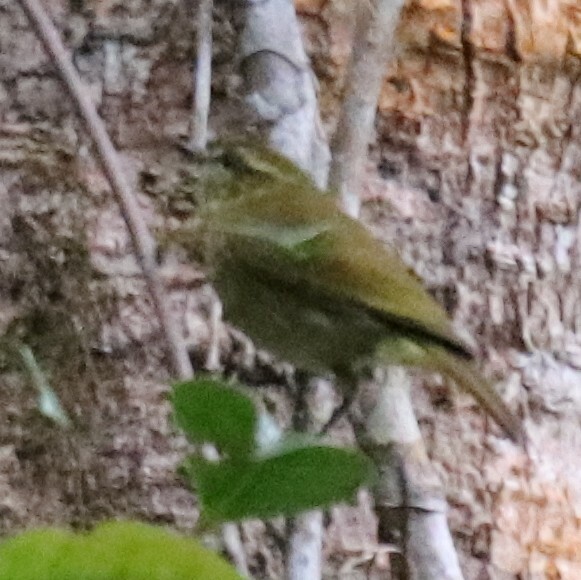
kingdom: Animalia
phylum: Chordata
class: Aves
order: Passeriformes
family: Phylloscopidae
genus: Phylloscopus
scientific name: Phylloscopus sarasinorum
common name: Sulawesi leaf warbler
